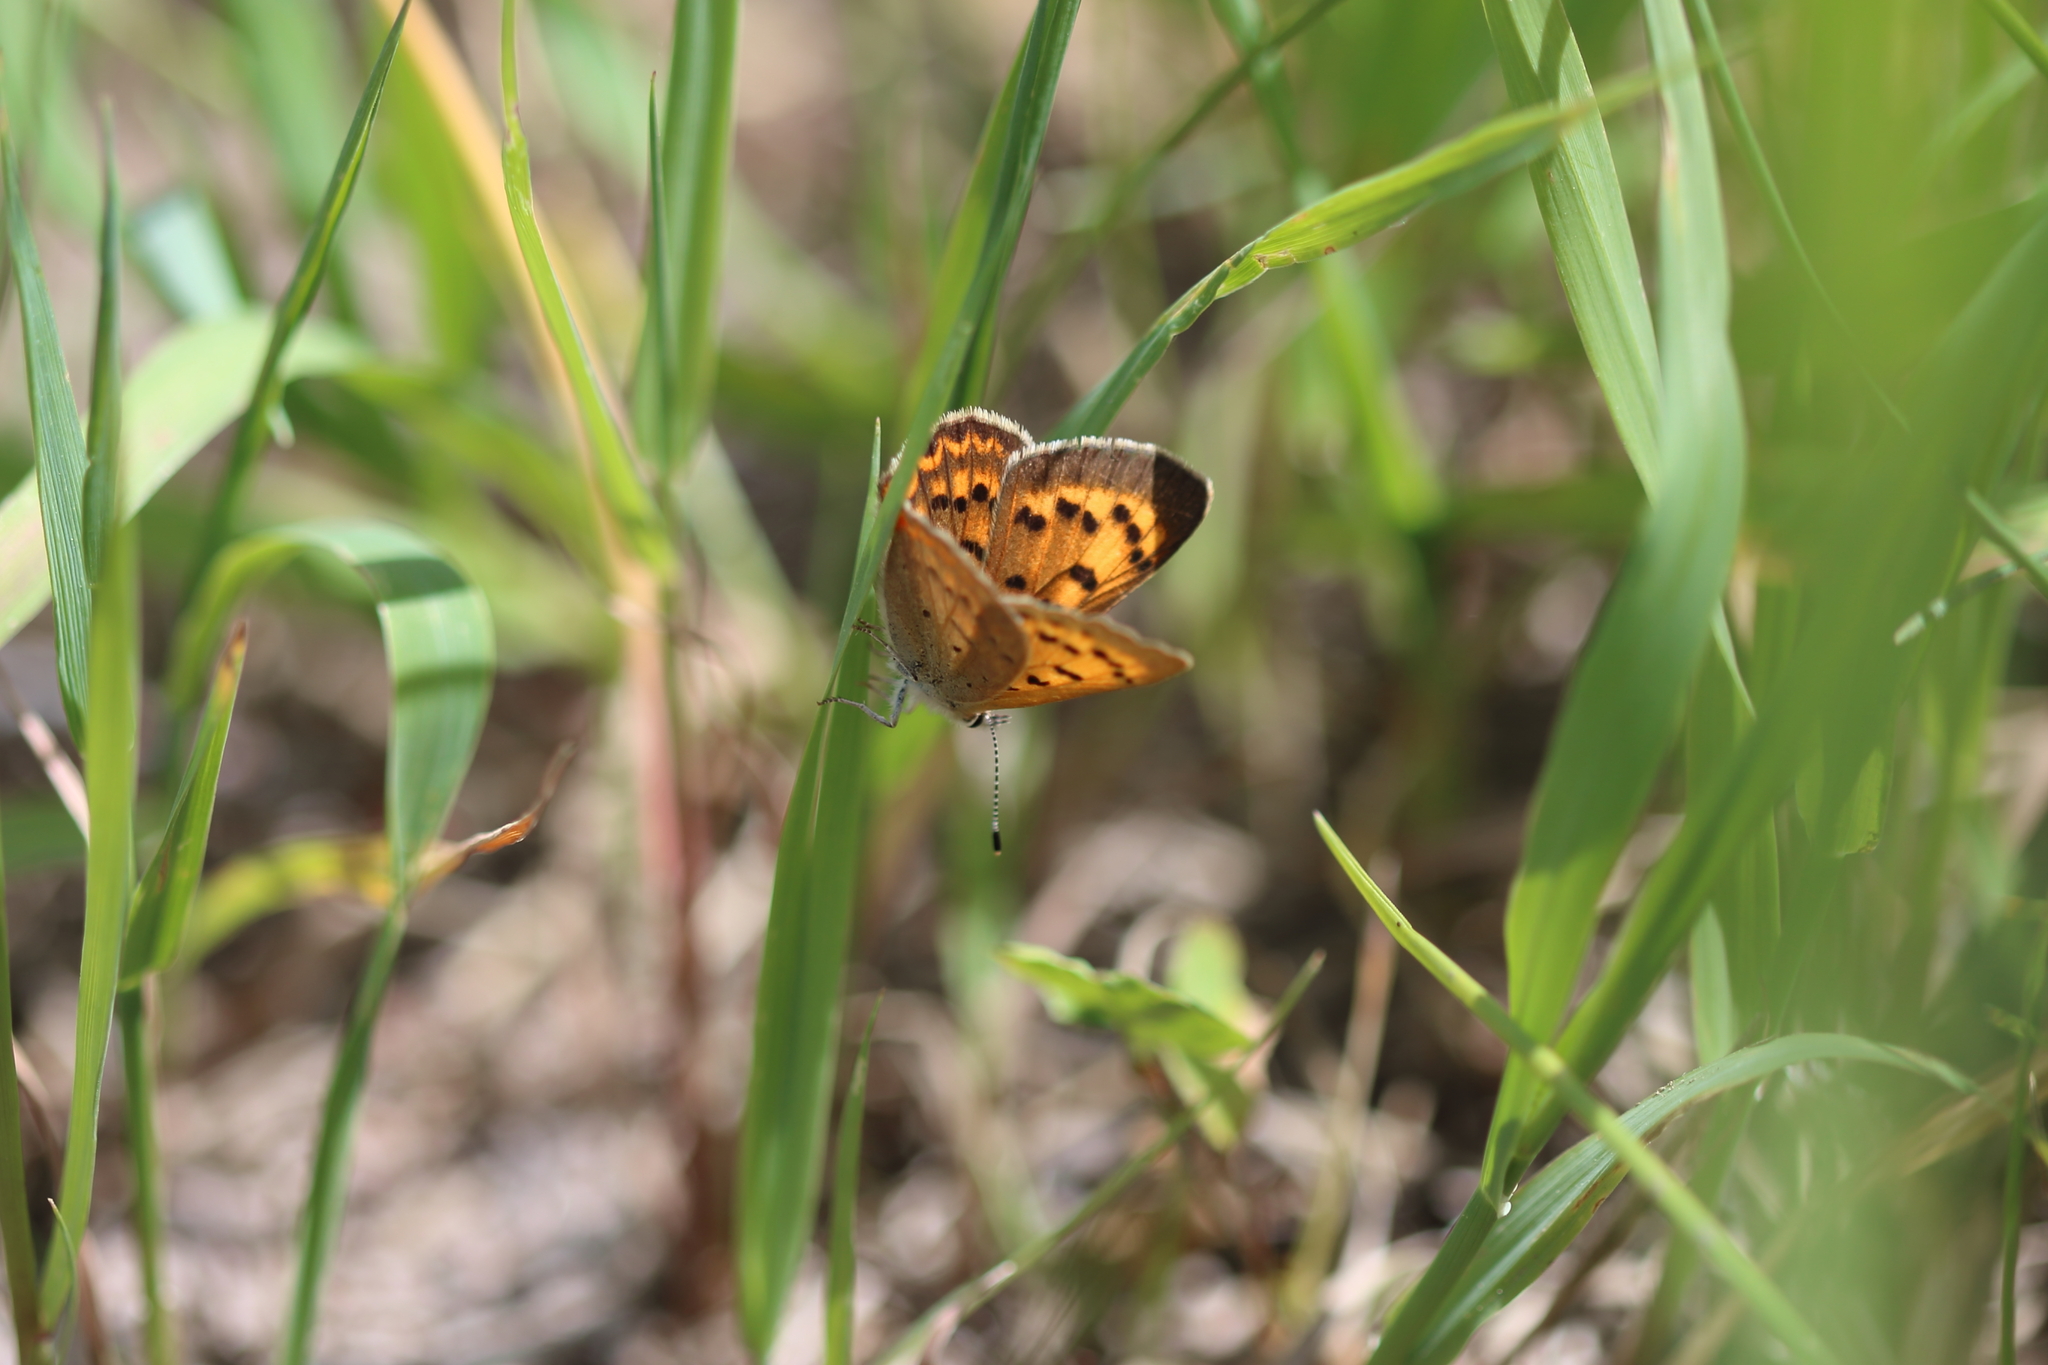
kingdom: Animalia
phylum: Arthropoda
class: Insecta
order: Lepidoptera
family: Lycaenidae
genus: Tharsalea
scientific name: Tharsalea helloides
